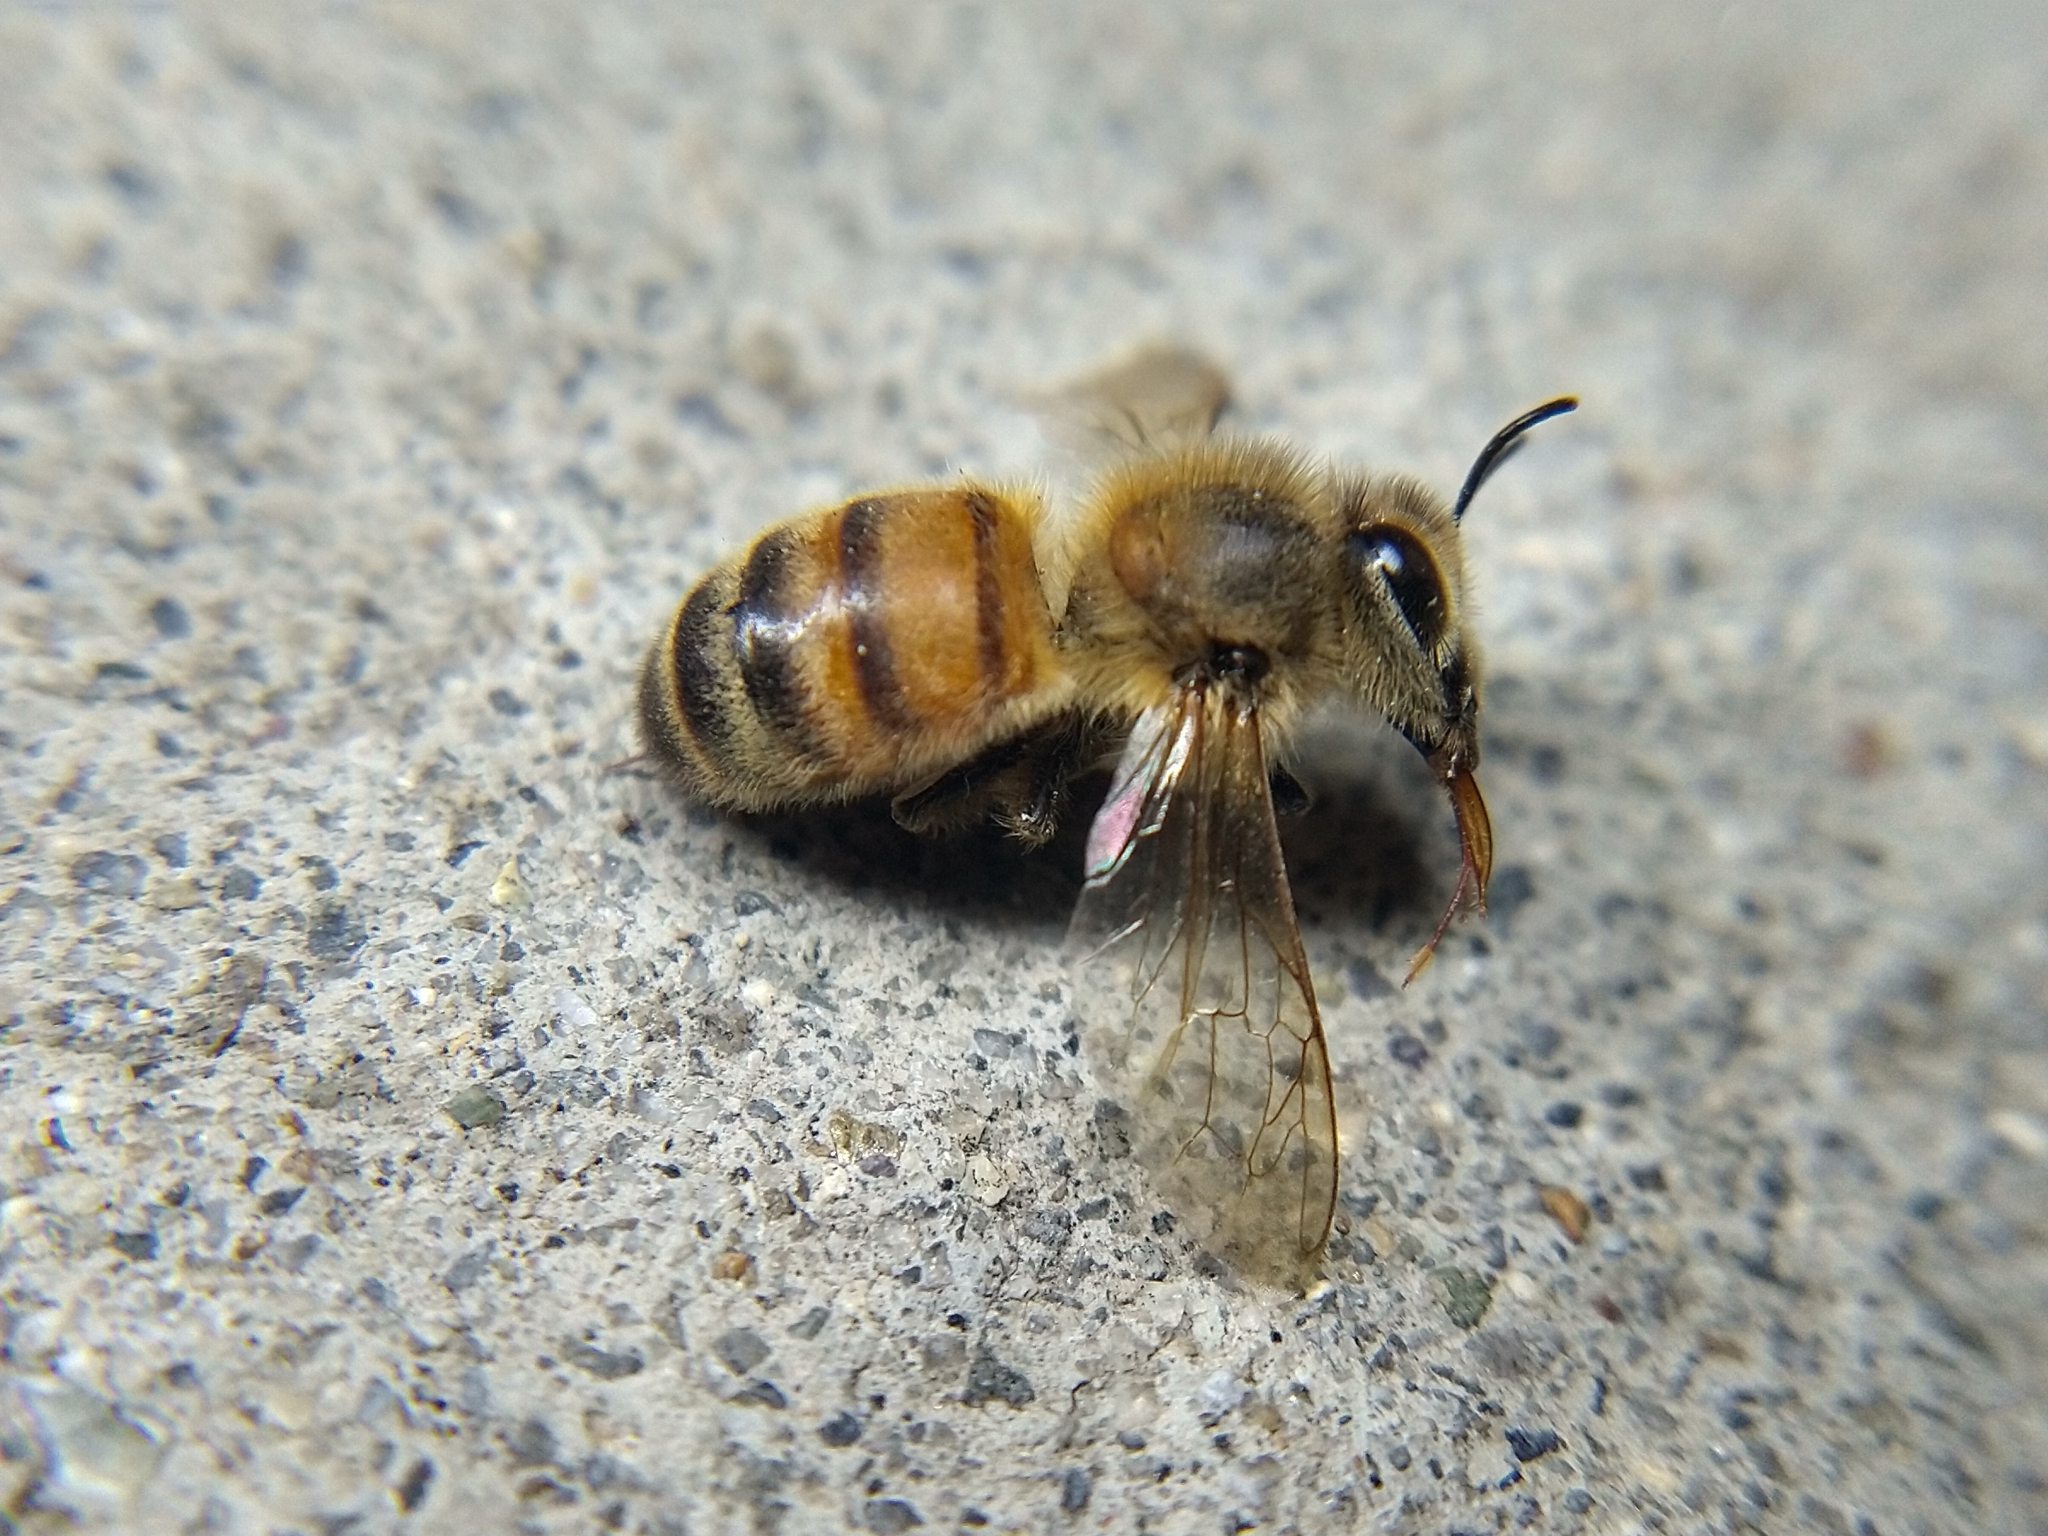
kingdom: Animalia
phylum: Arthropoda
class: Insecta
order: Hymenoptera
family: Apidae
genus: Apis
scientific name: Apis mellifera
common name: Honey bee
